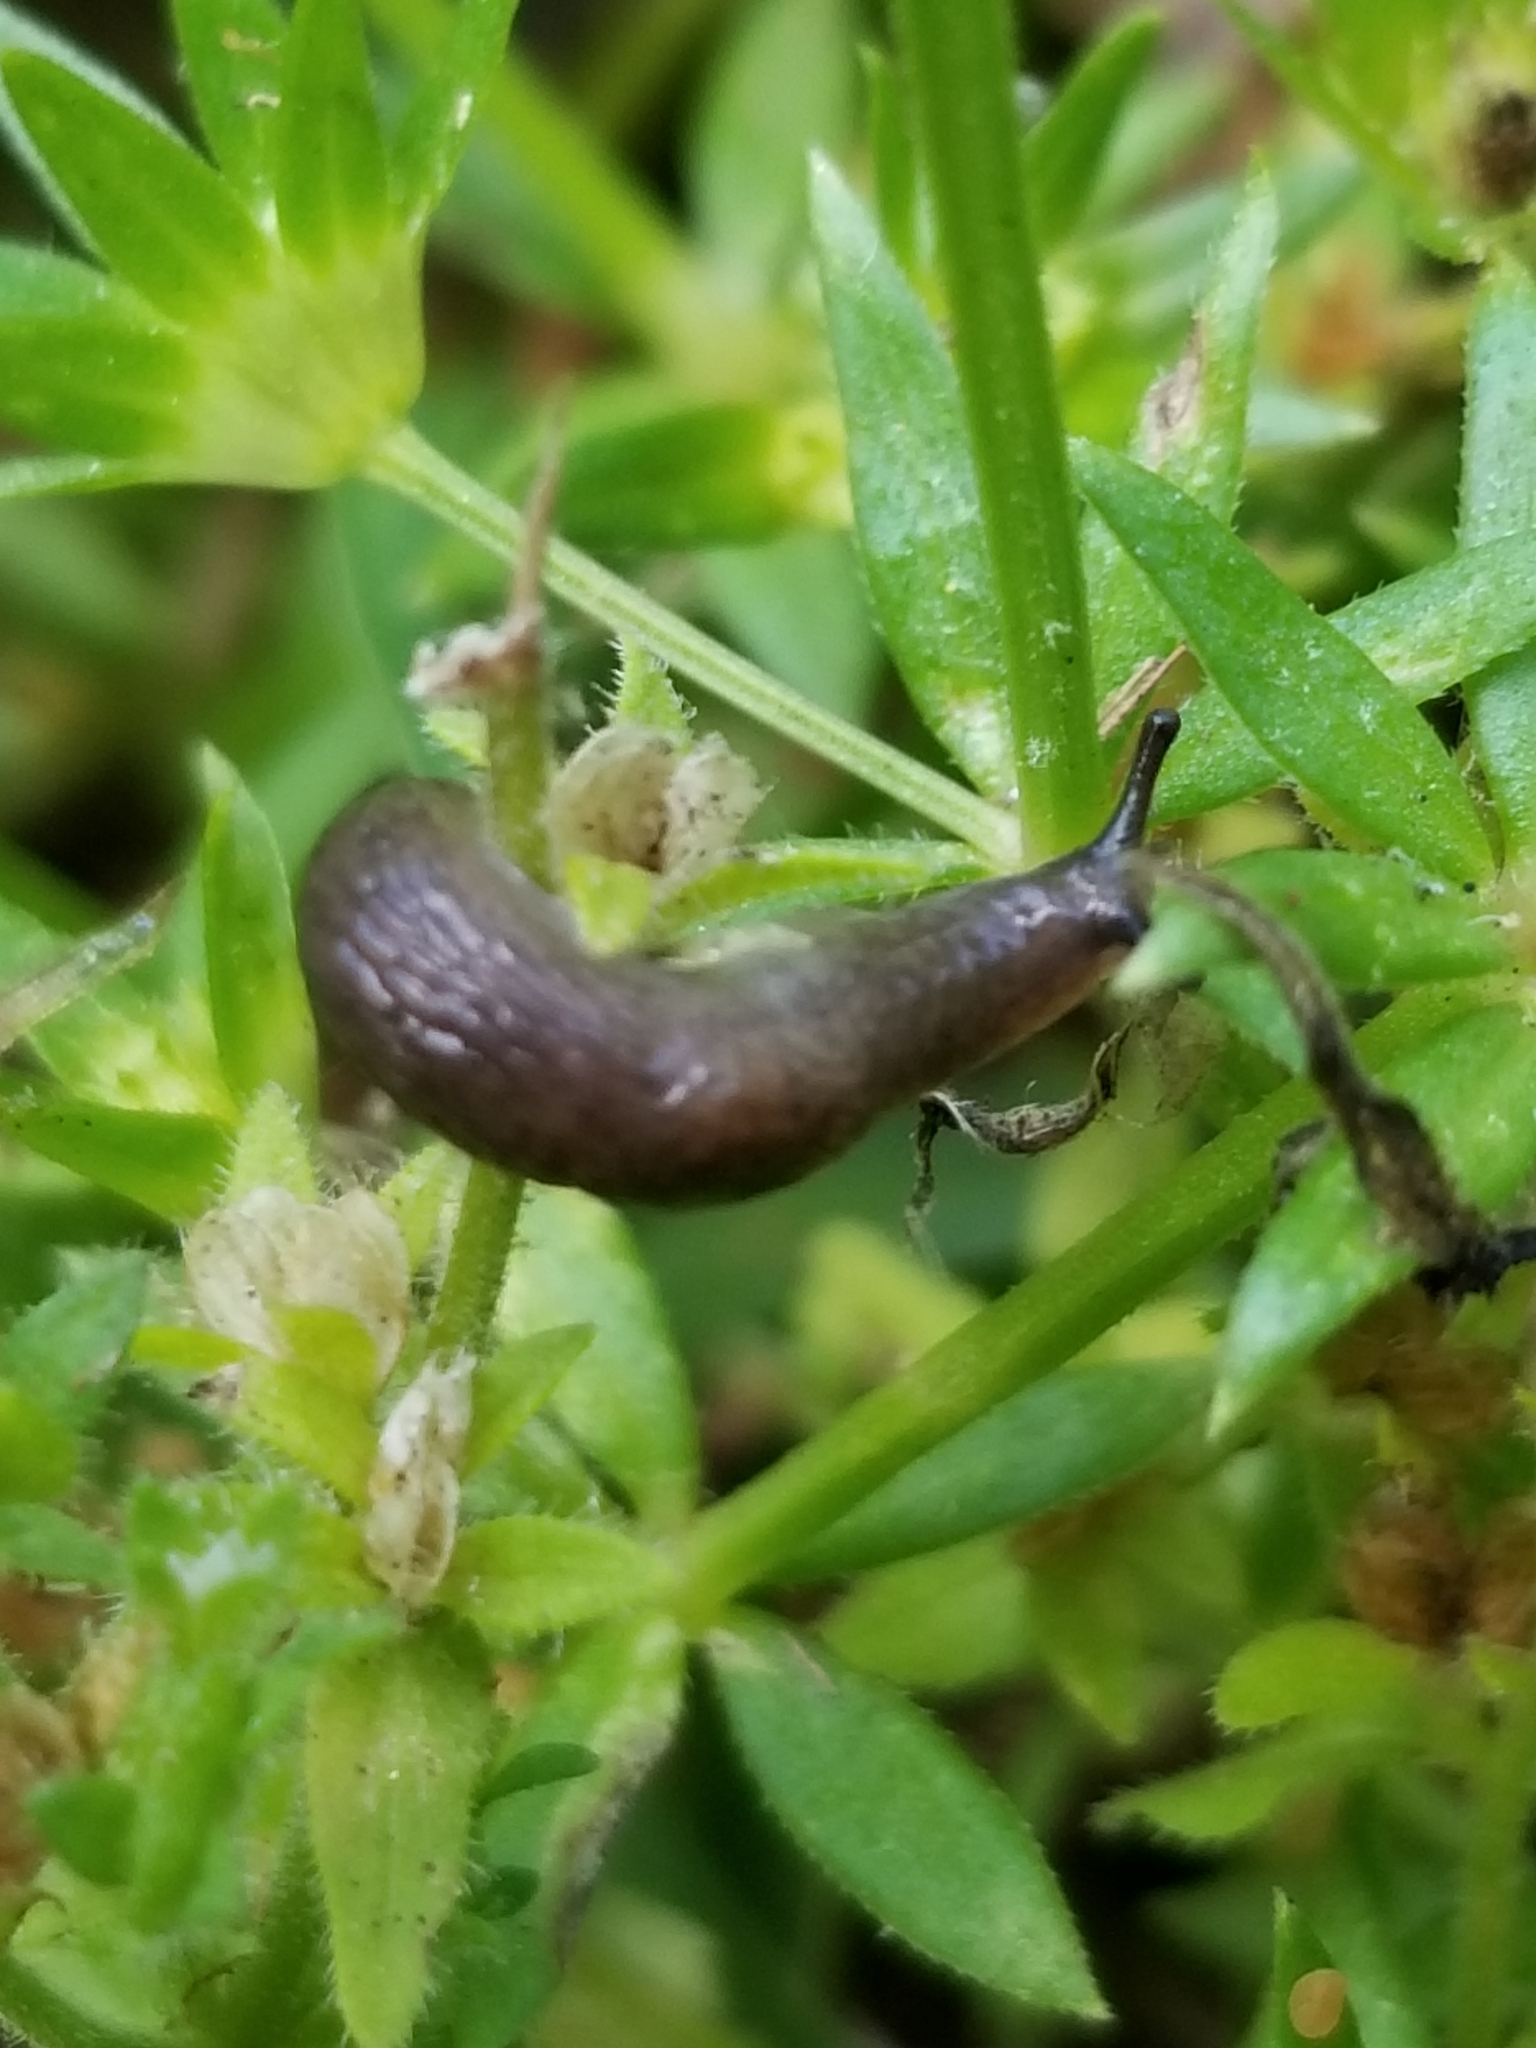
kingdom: Animalia
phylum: Mollusca
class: Gastropoda
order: Stylommatophora
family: Agriolimacidae
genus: Deroceras
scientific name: Deroceras laeve
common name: Marsh slug
